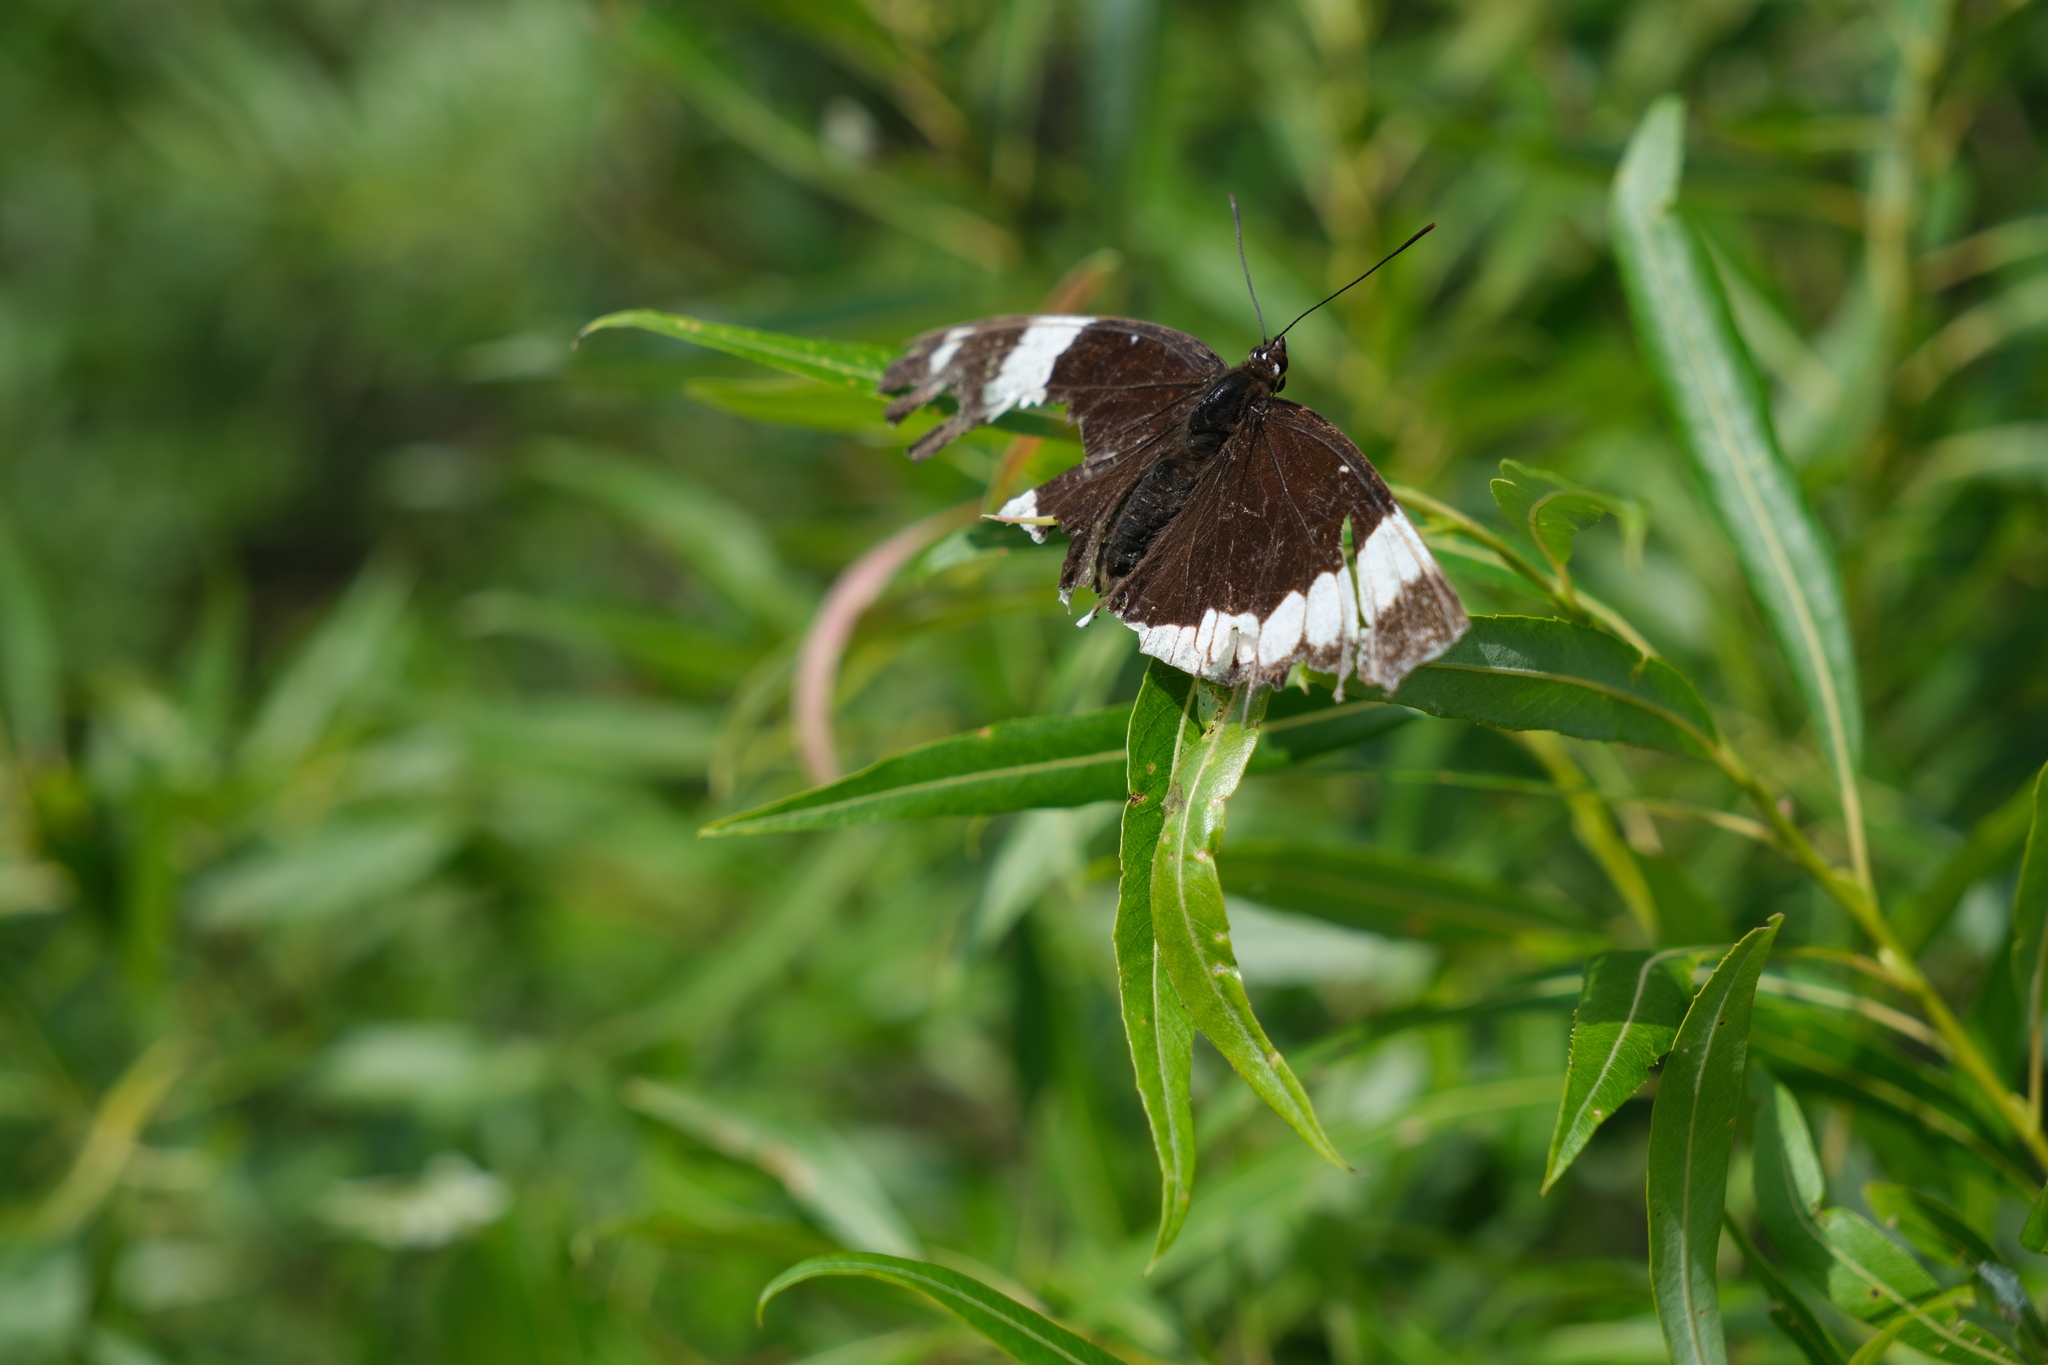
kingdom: Animalia
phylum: Arthropoda
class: Insecta
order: Lepidoptera
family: Nymphalidae
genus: Limenitis
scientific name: Limenitis arthemis
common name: Red-spotted admiral
